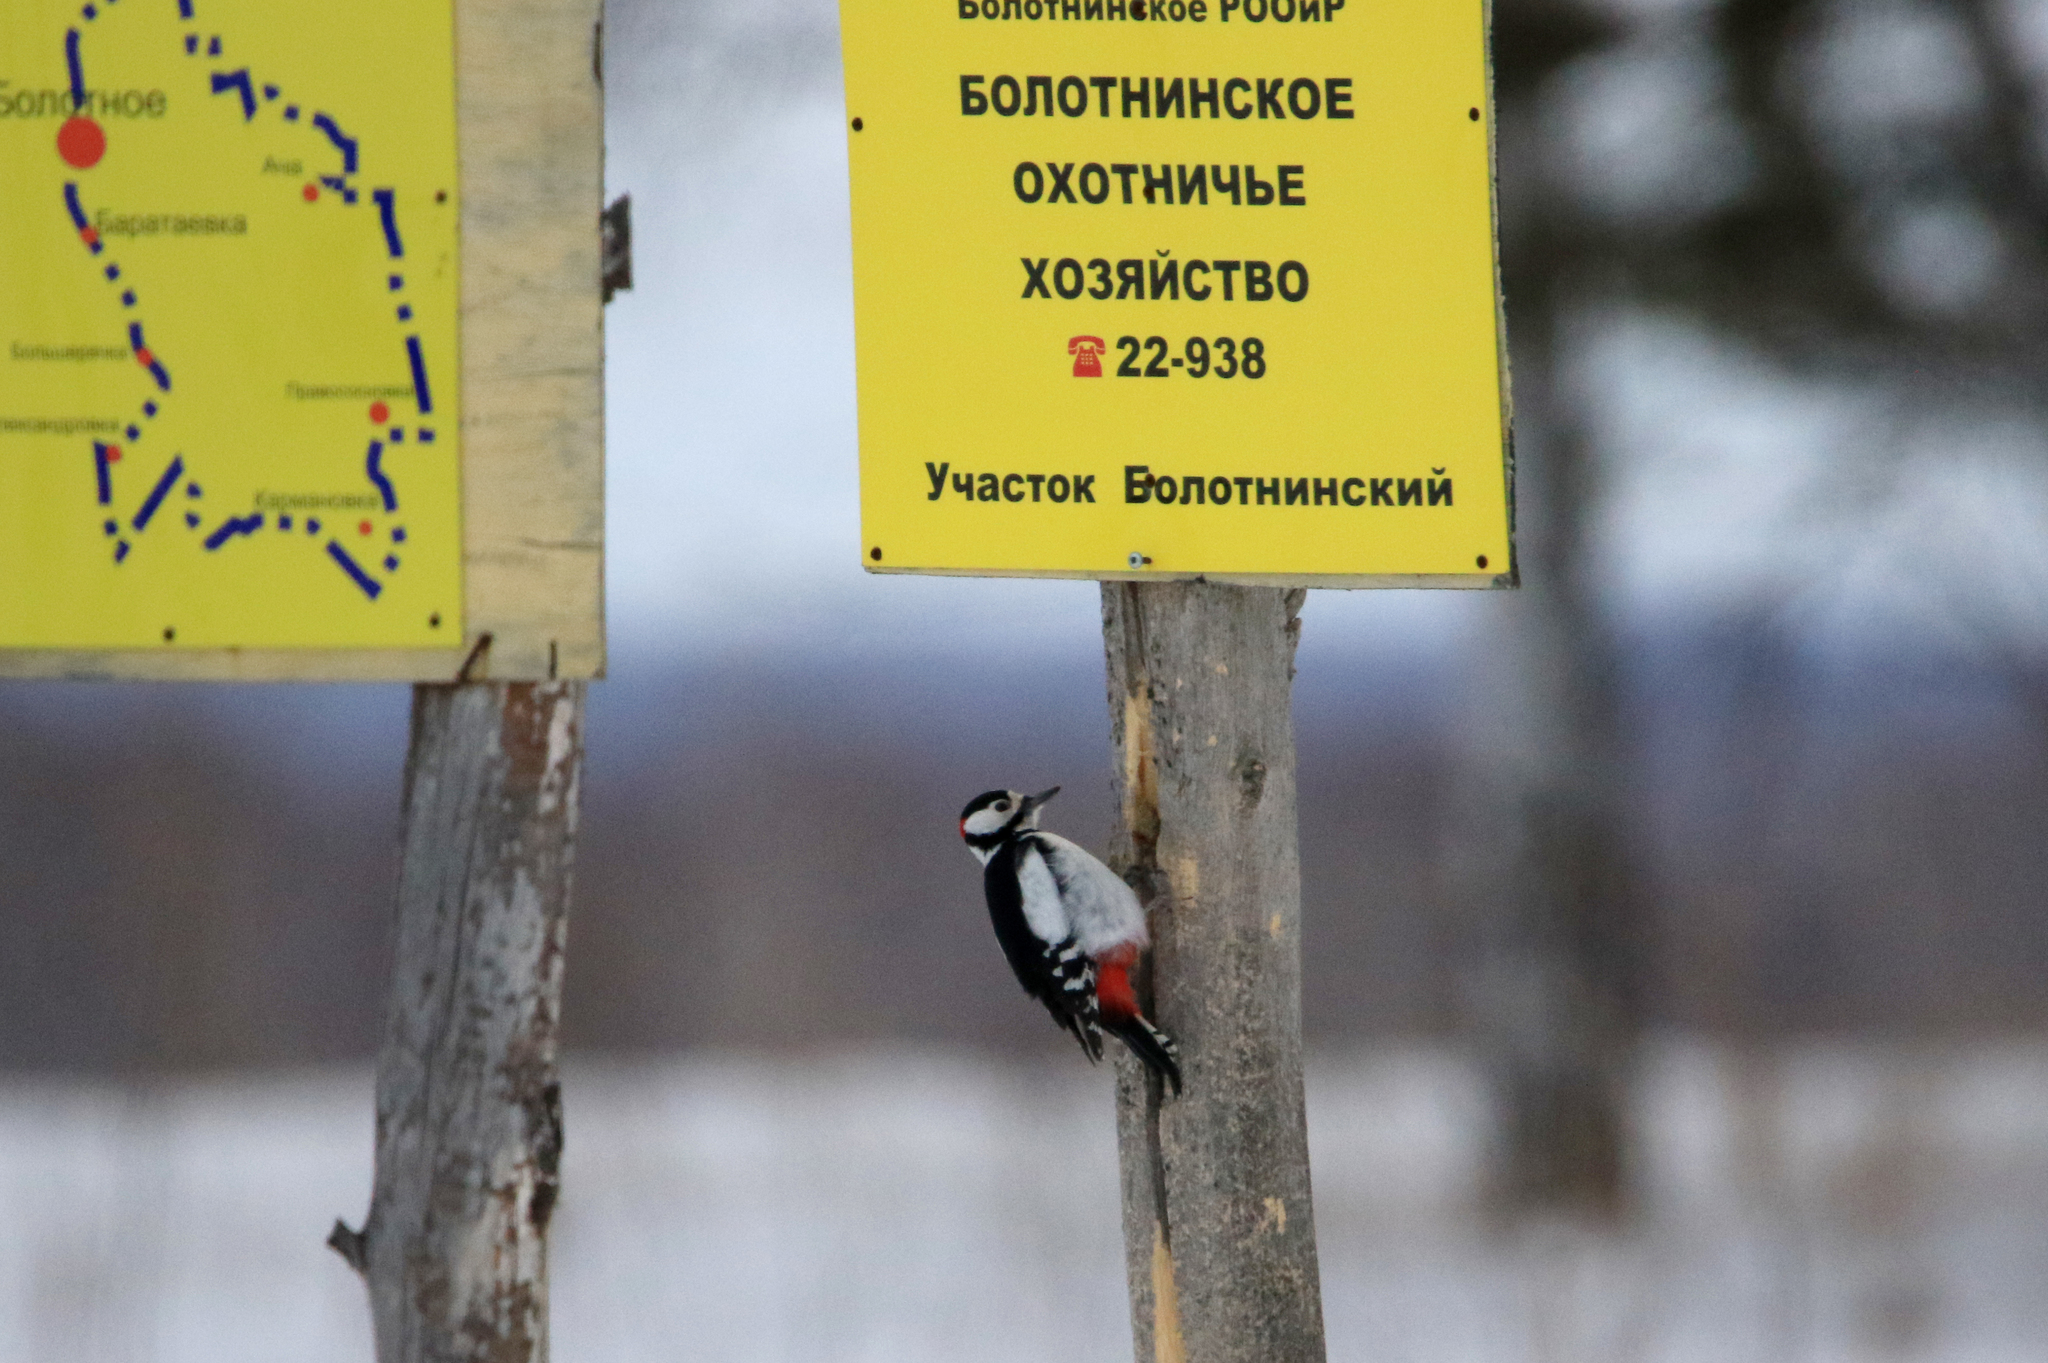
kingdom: Animalia
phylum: Chordata
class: Aves
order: Piciformes
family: Picidae
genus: Dendrocopos
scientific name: Dendrocopos major
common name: Great spotted woodpecker
